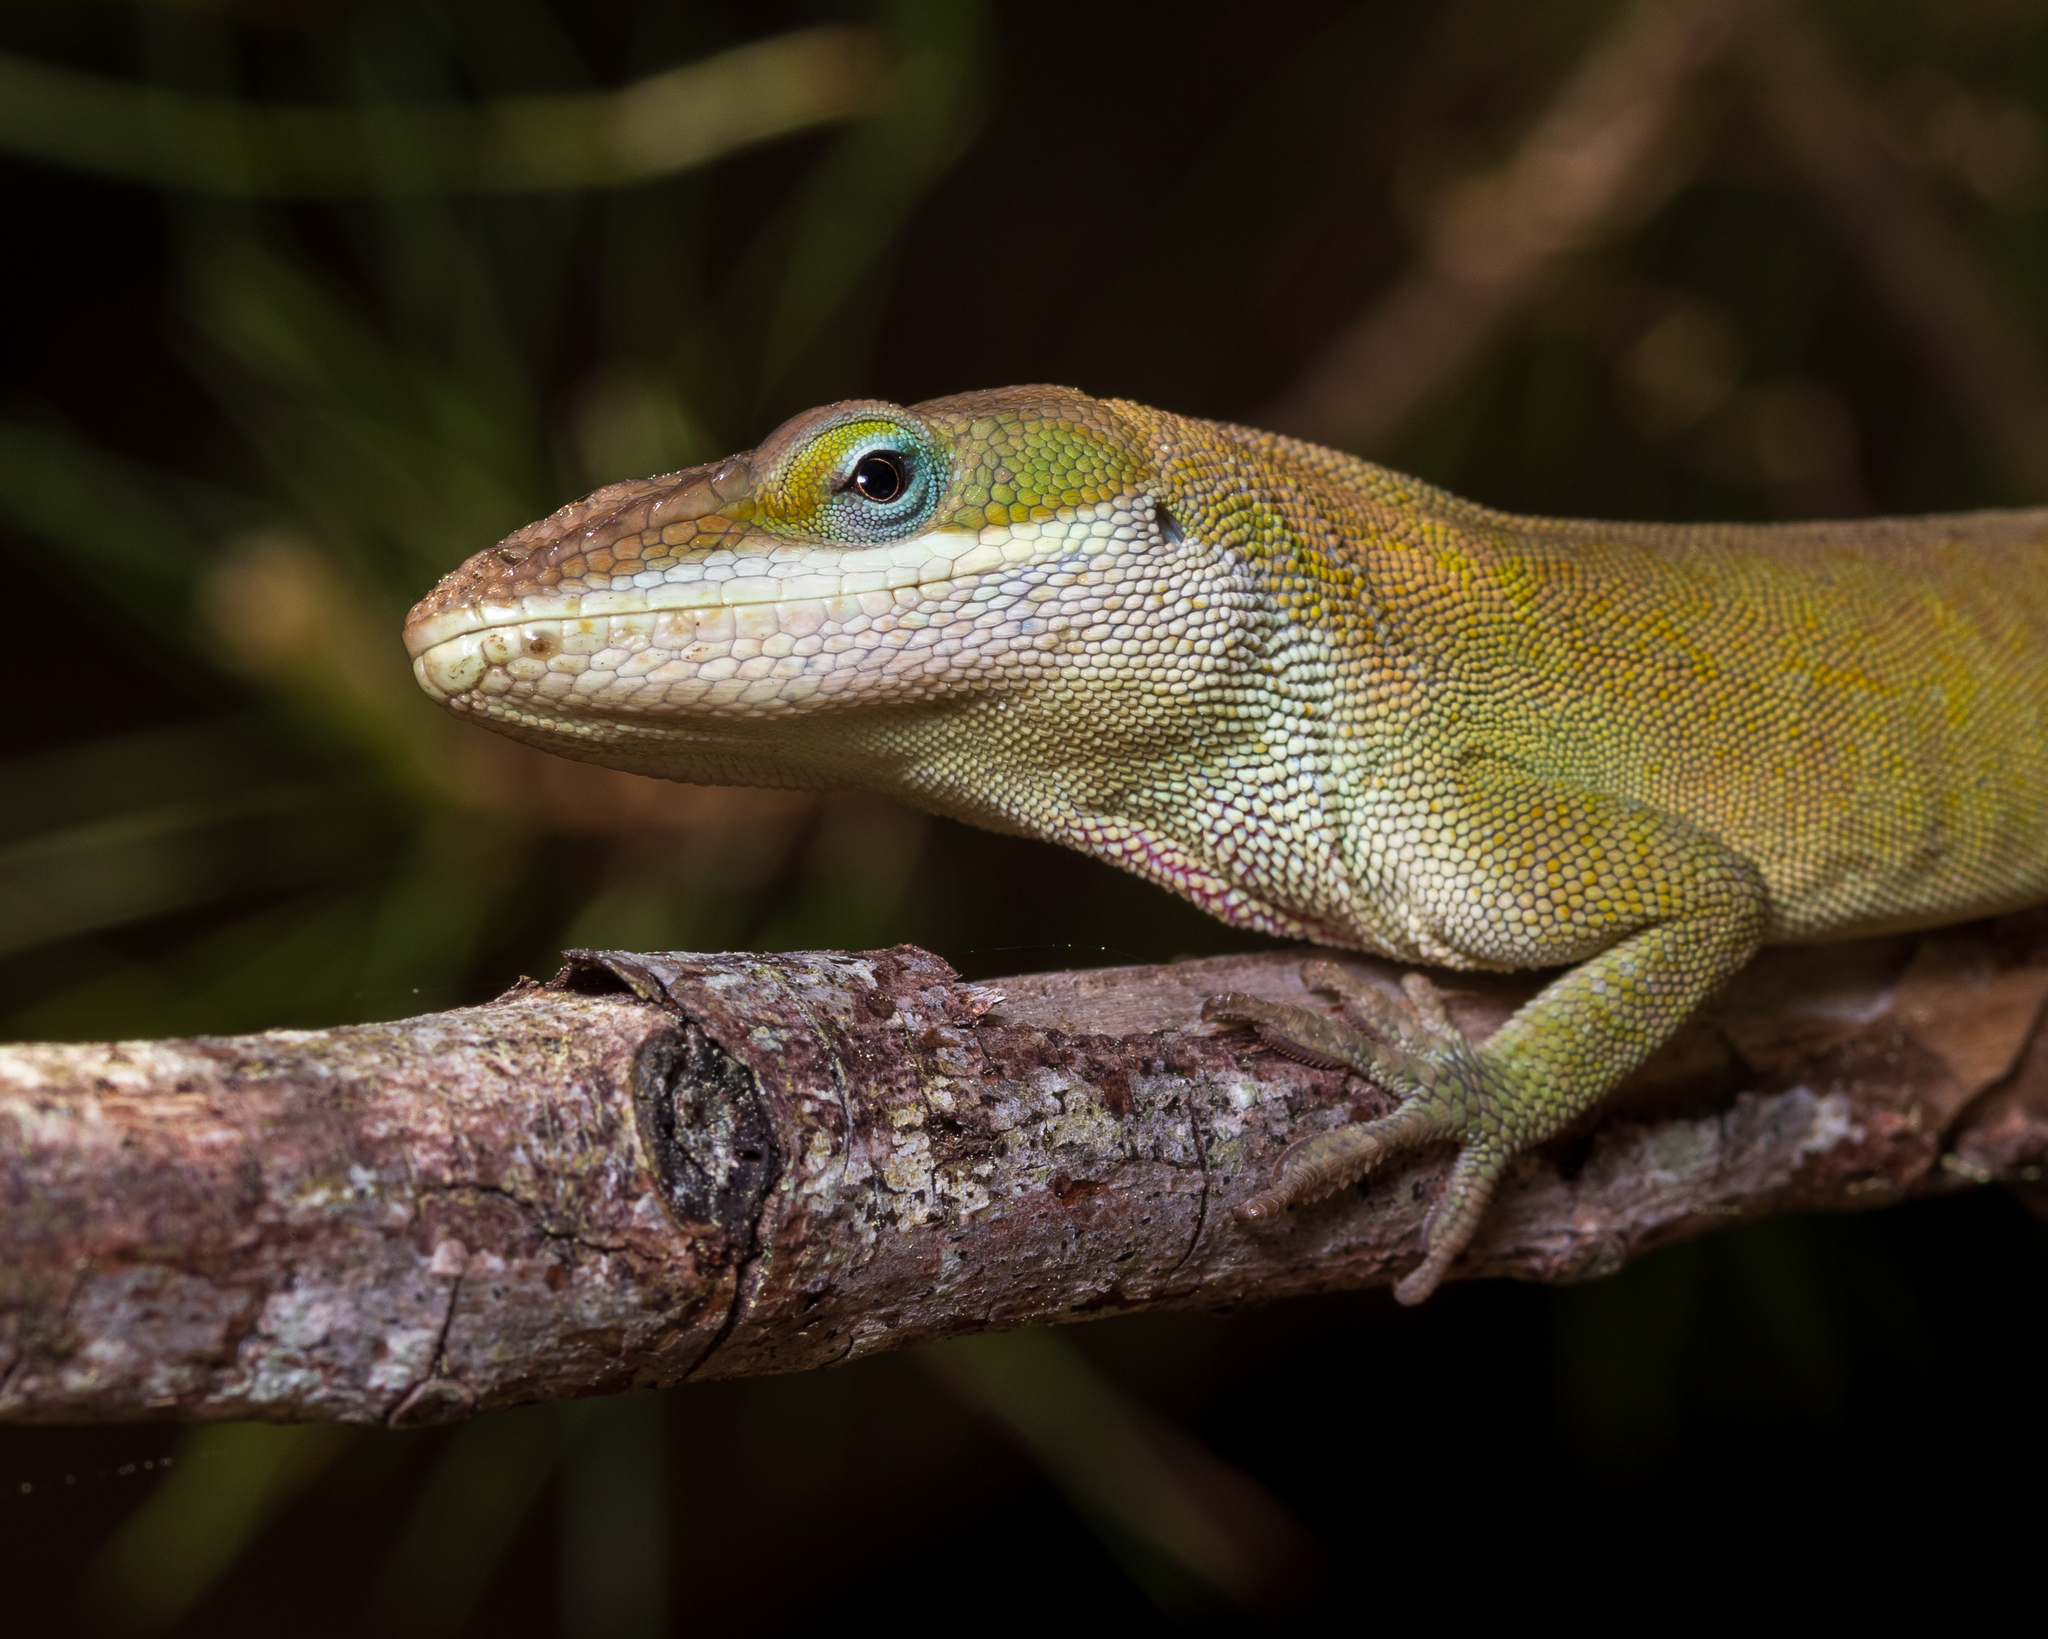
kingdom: Animalia
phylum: Chordata
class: Squamata
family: Dactyloidae
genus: Anolis
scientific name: Anolis carolinensis
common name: Green anole
